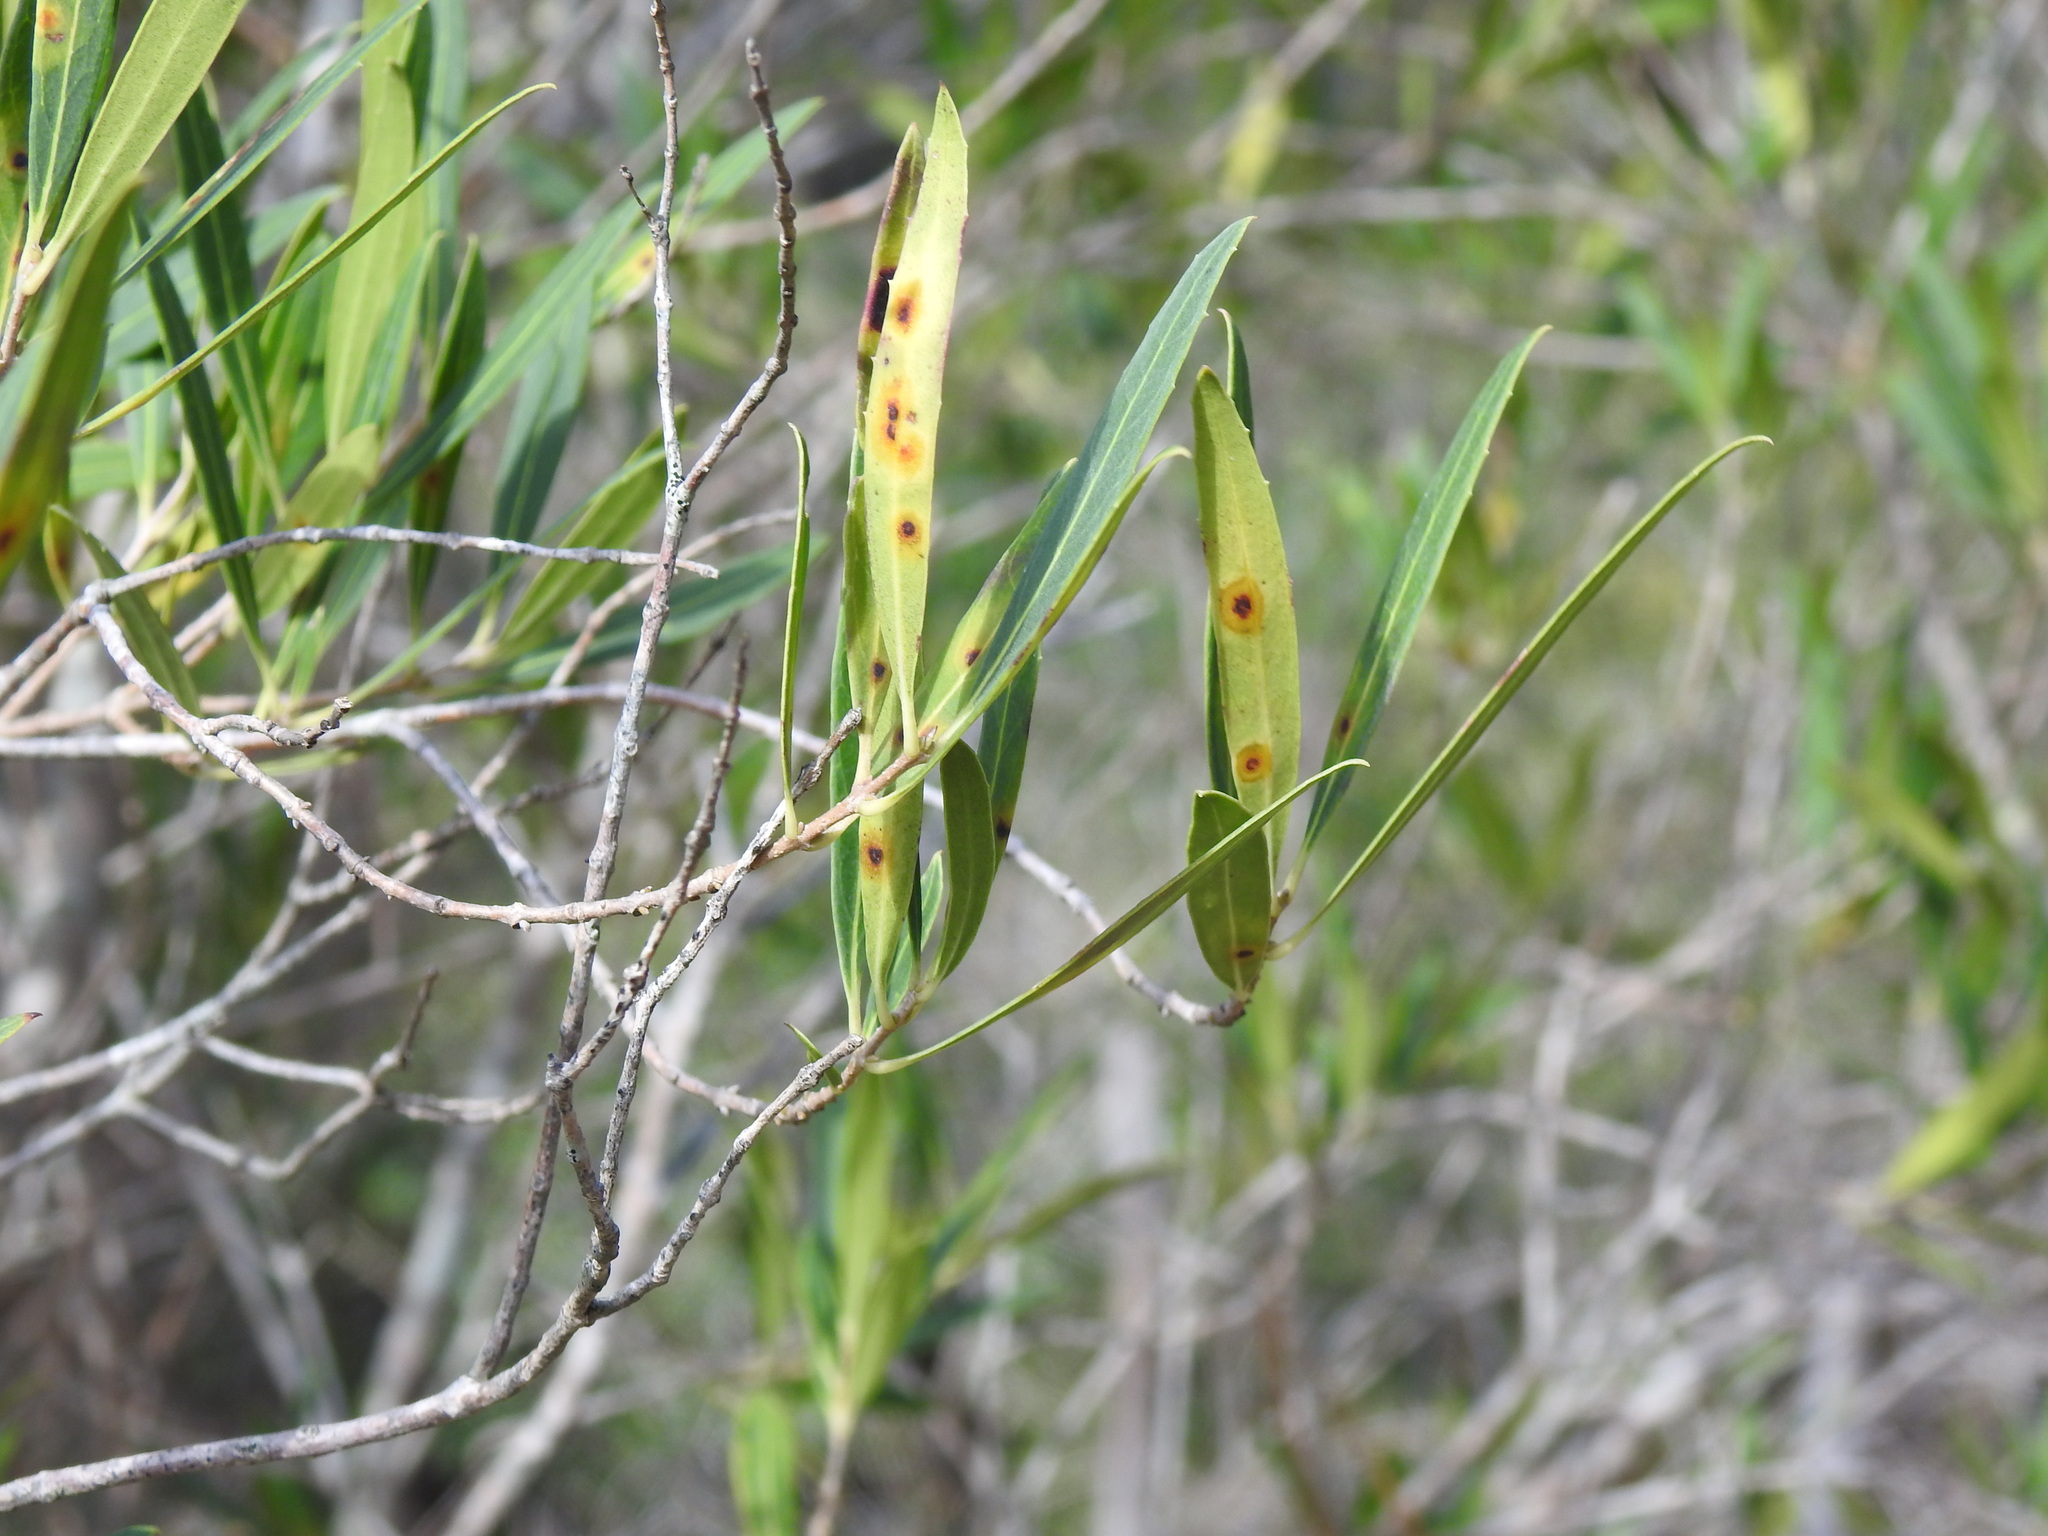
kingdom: Animalia
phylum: Arthropoda
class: Insecta
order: Diptera
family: Cecidomyiidae
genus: Braueriella
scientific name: Braueriella phillyreae
